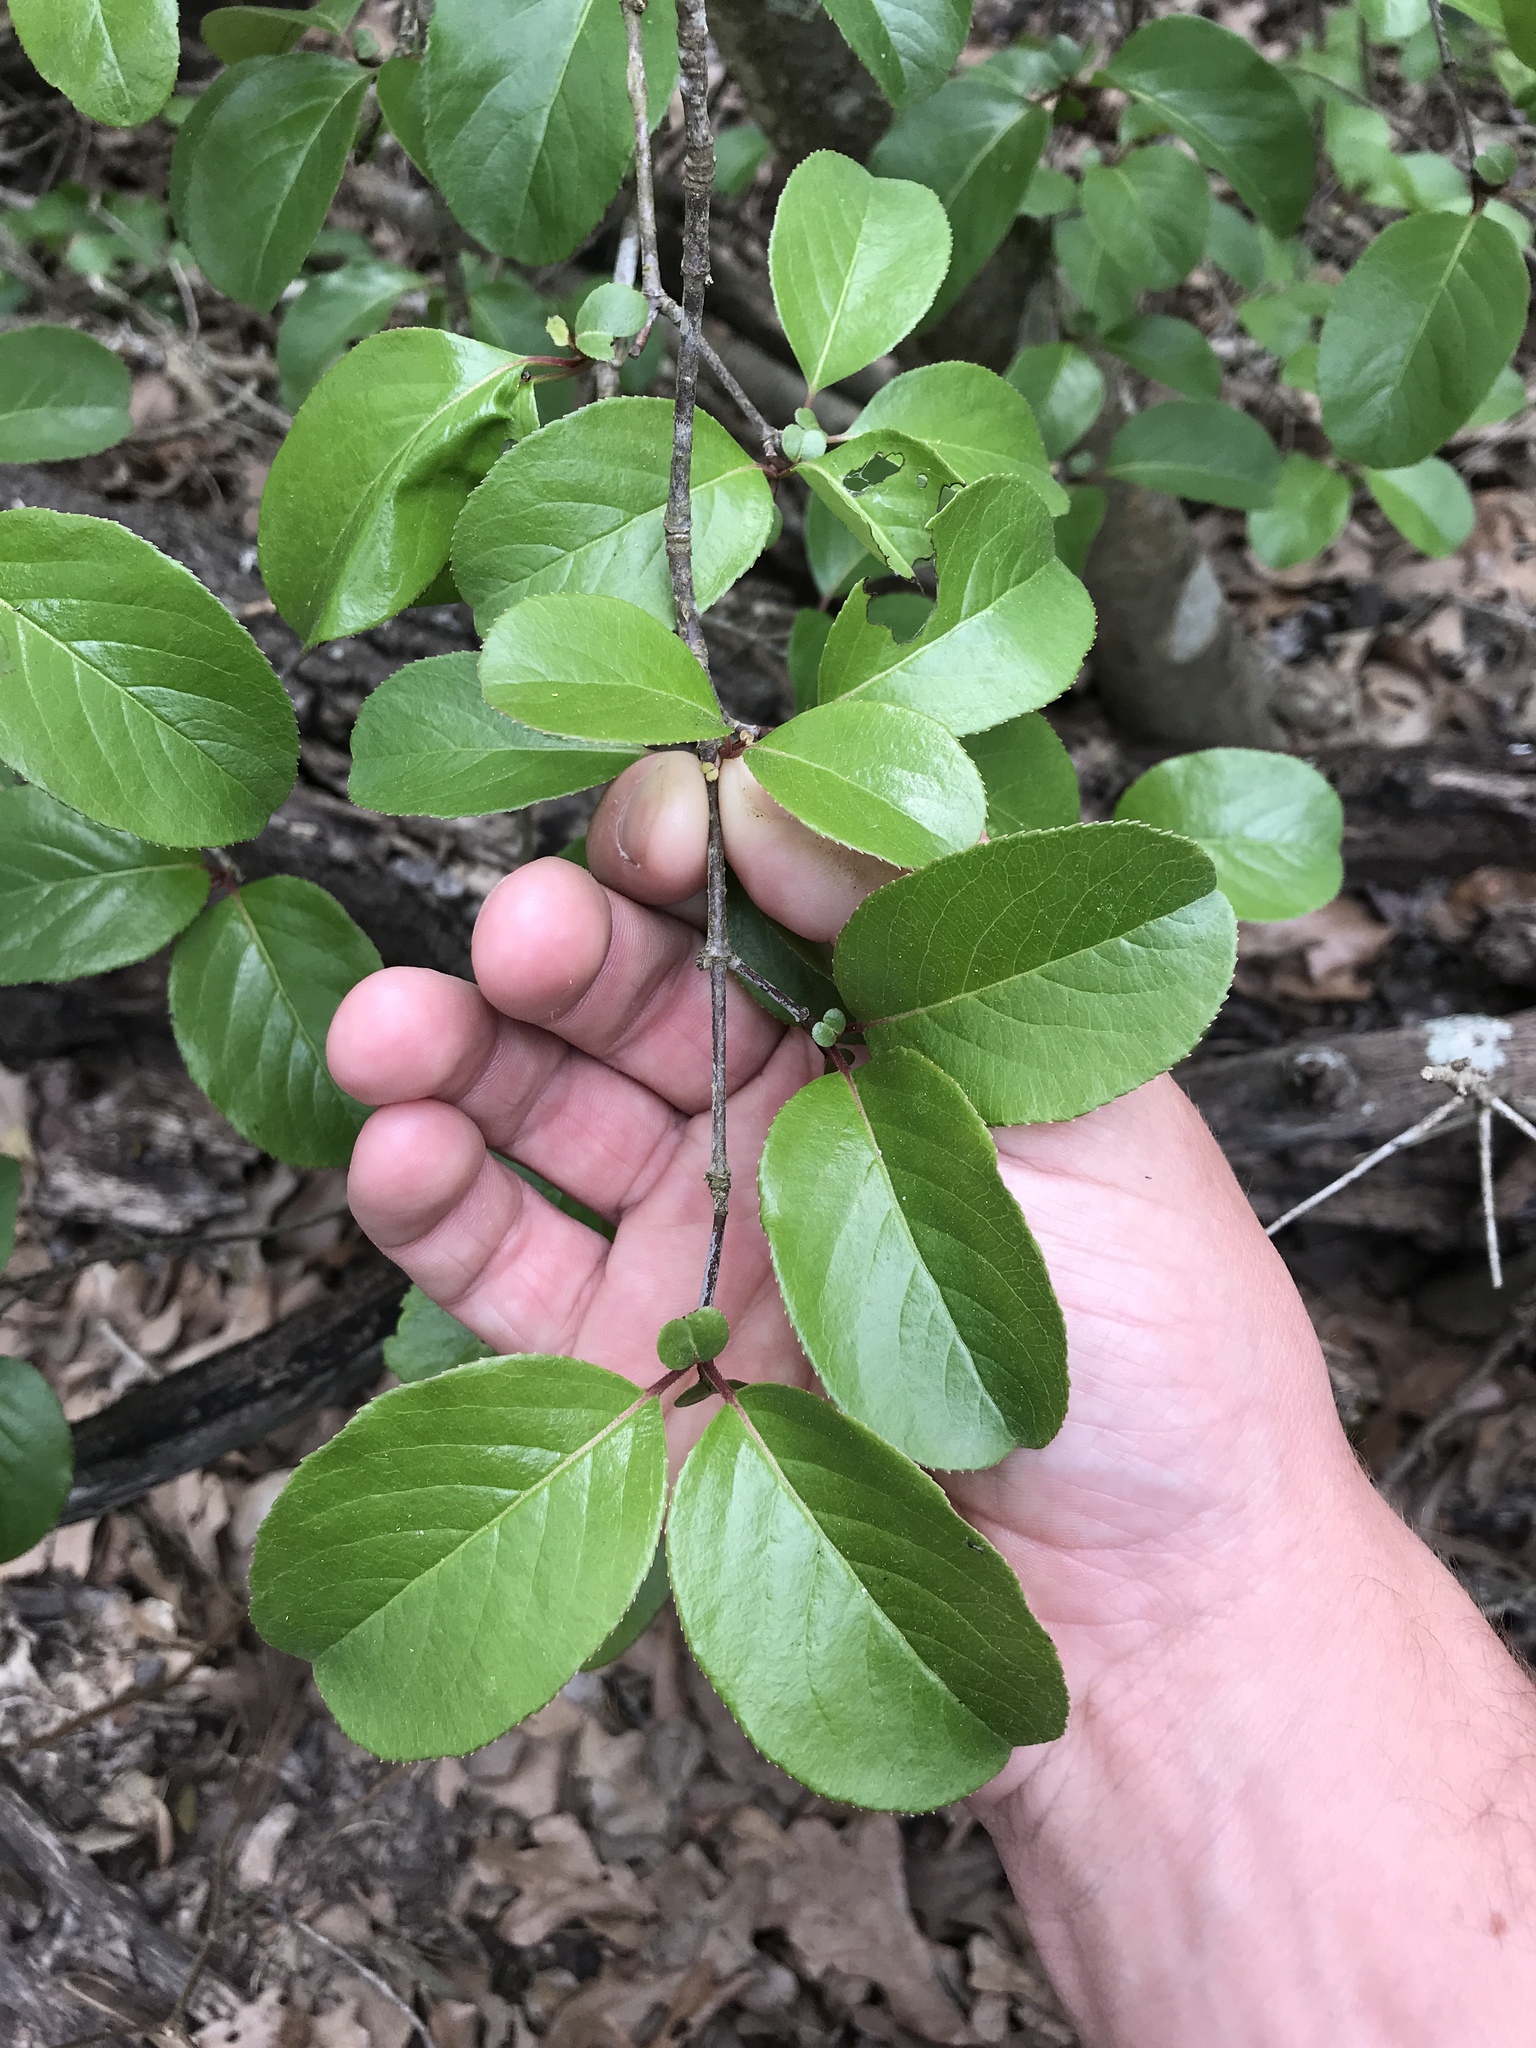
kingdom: Plantae
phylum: Tracheophyta
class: Magnoliopsida
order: Dipsacales
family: Viburnaceae
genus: Viburnum
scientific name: Viburnum rufidulum
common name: Blue haw
